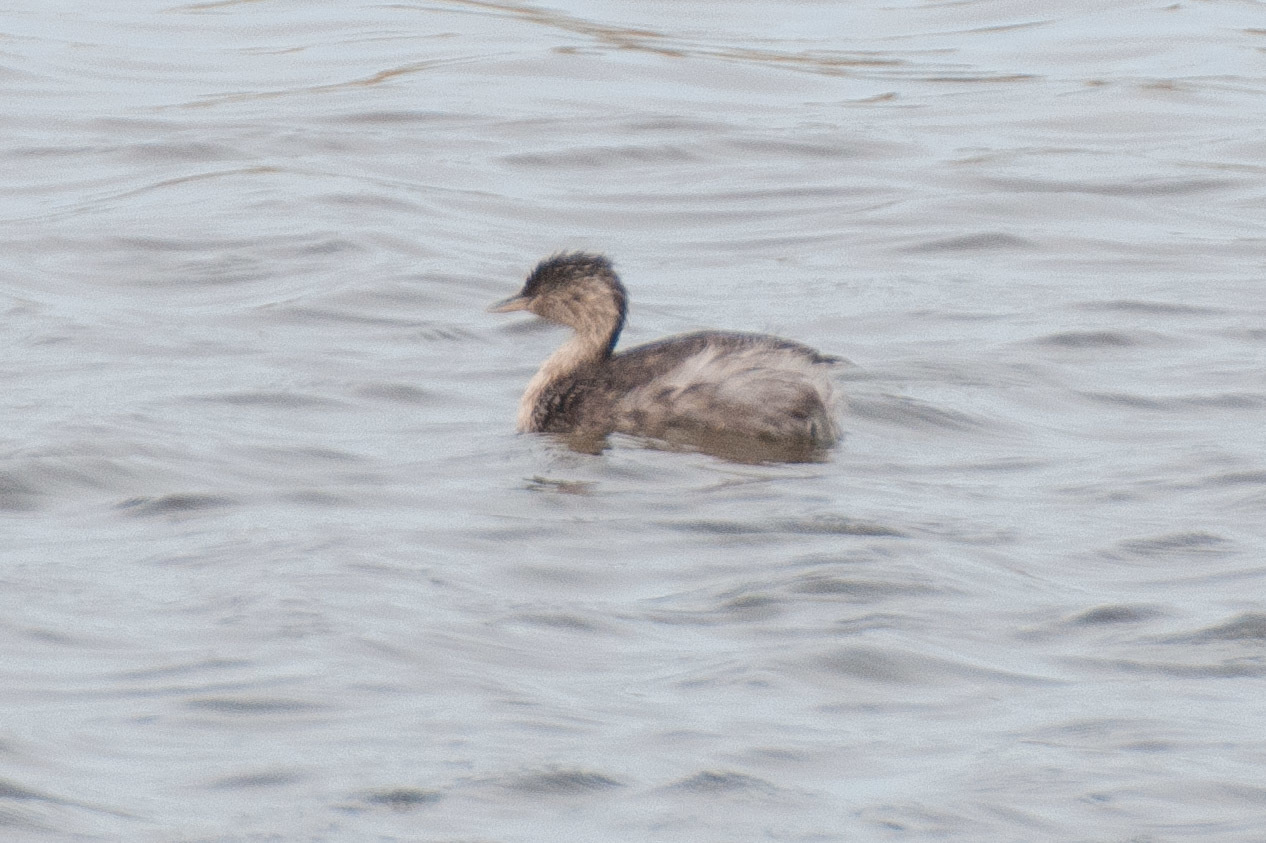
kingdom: Animalia
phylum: Chordata
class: Aves
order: Podicipediformes
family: Podicipedidae
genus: Poliocephalus
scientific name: Poliocephalus poliocephalus
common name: Hoary-headed grebe
